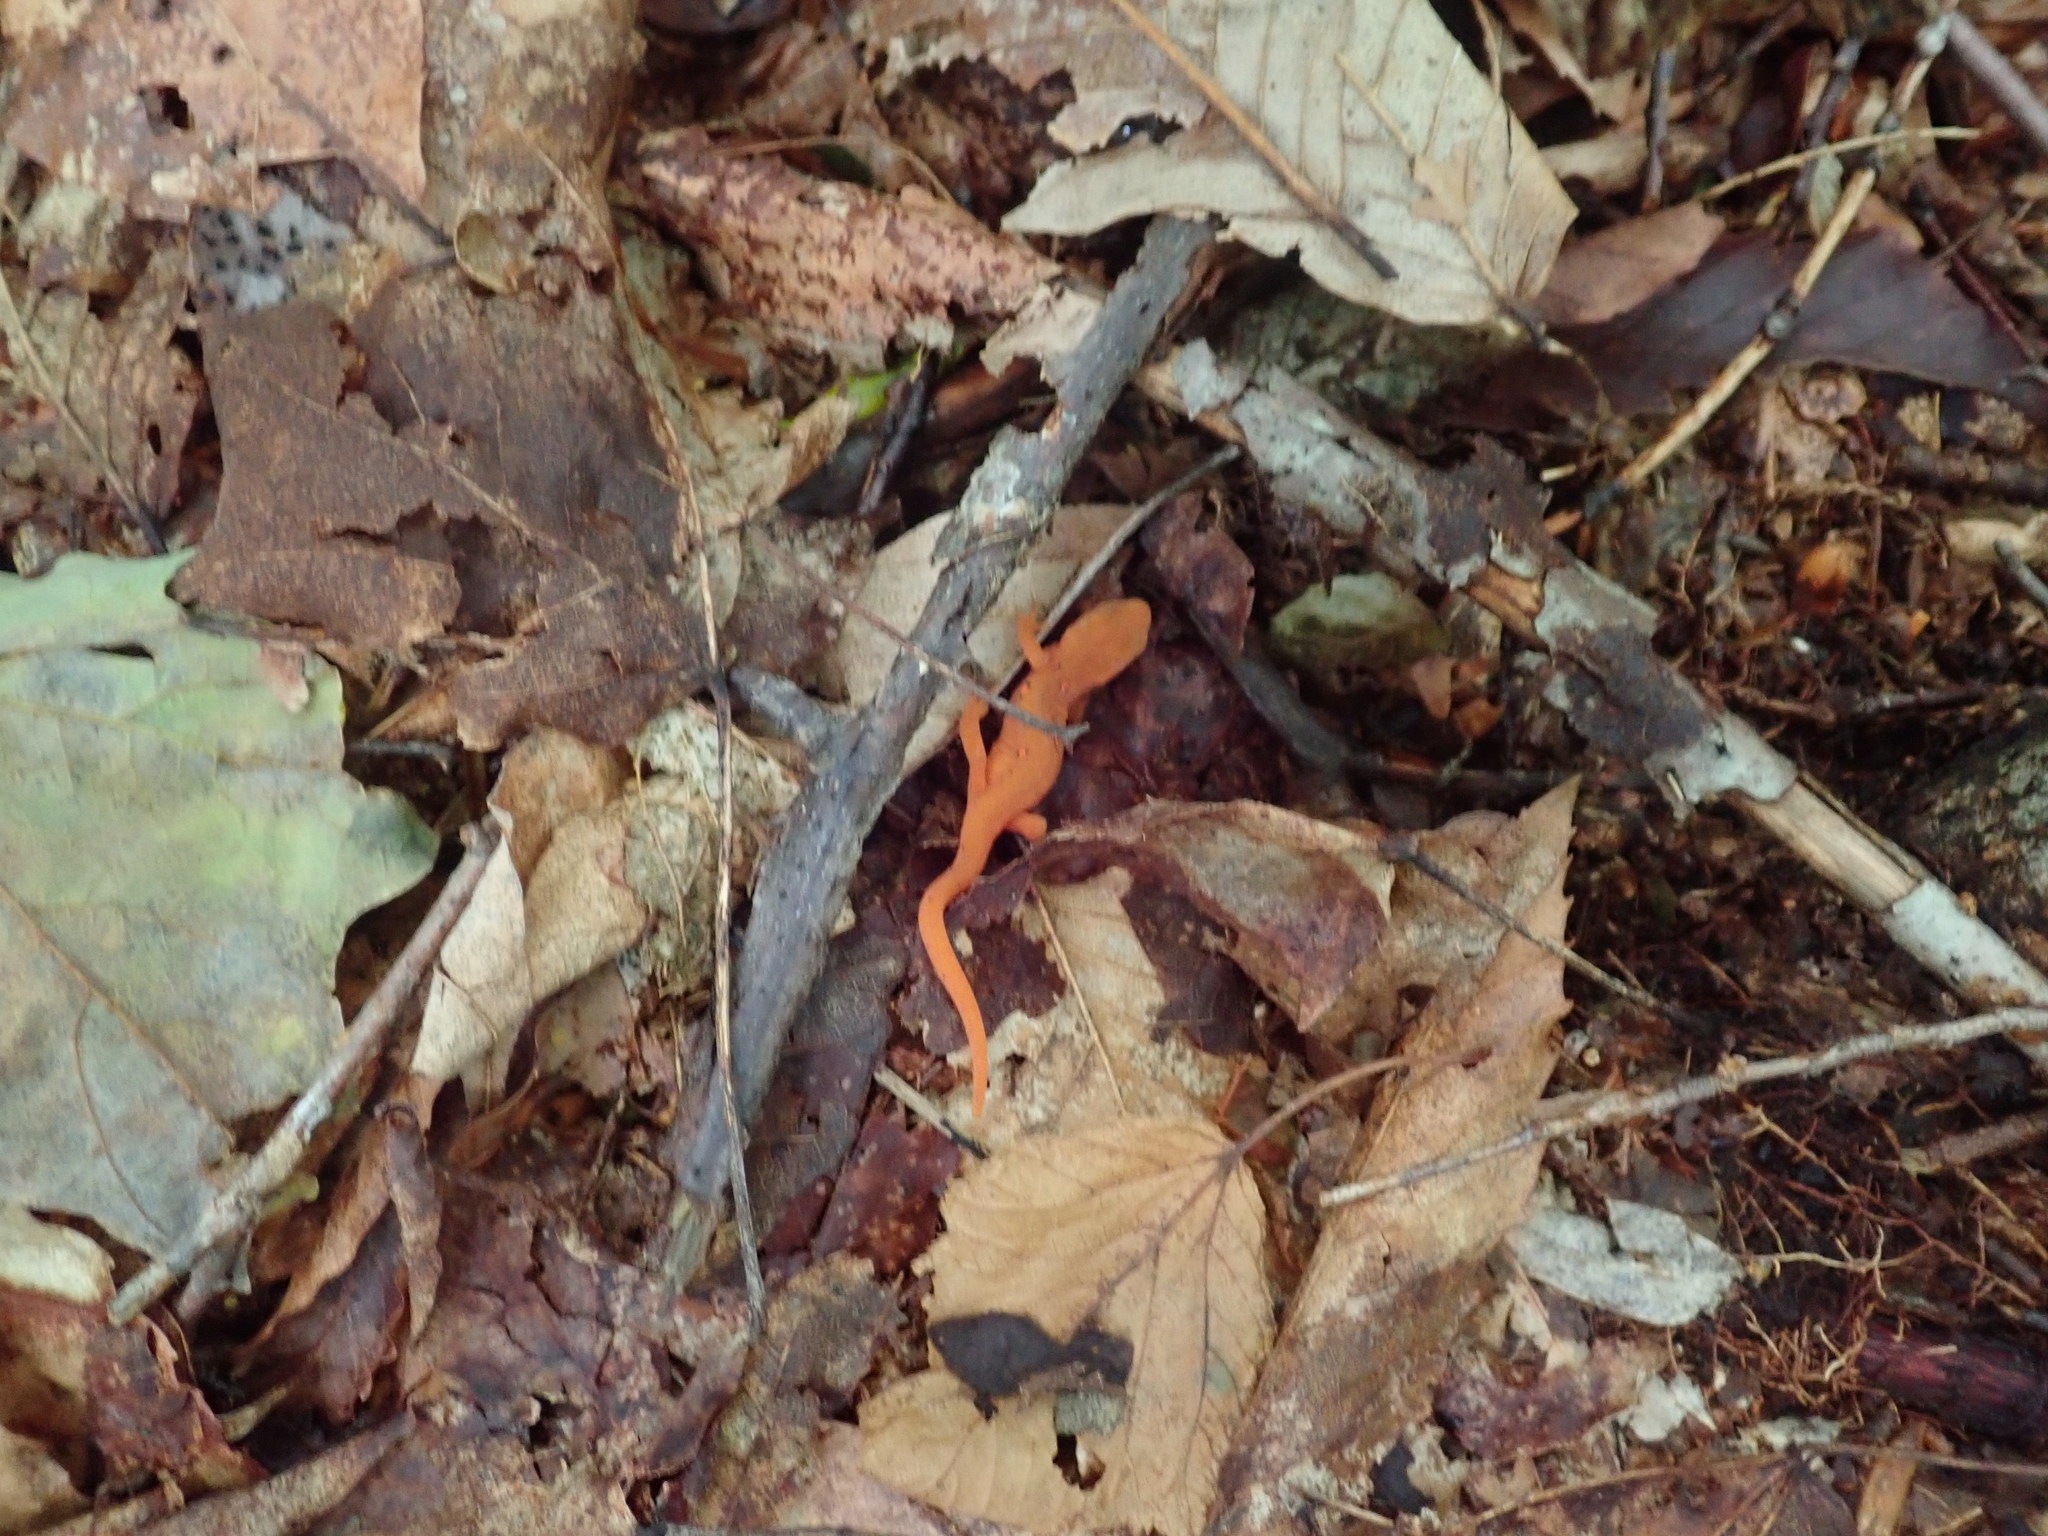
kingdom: Animalia
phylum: Chordata
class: Amphibia
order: Caudata
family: Salamandridae
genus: Notophthalmus
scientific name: Notophthalmus viridescens
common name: Eastern newt
